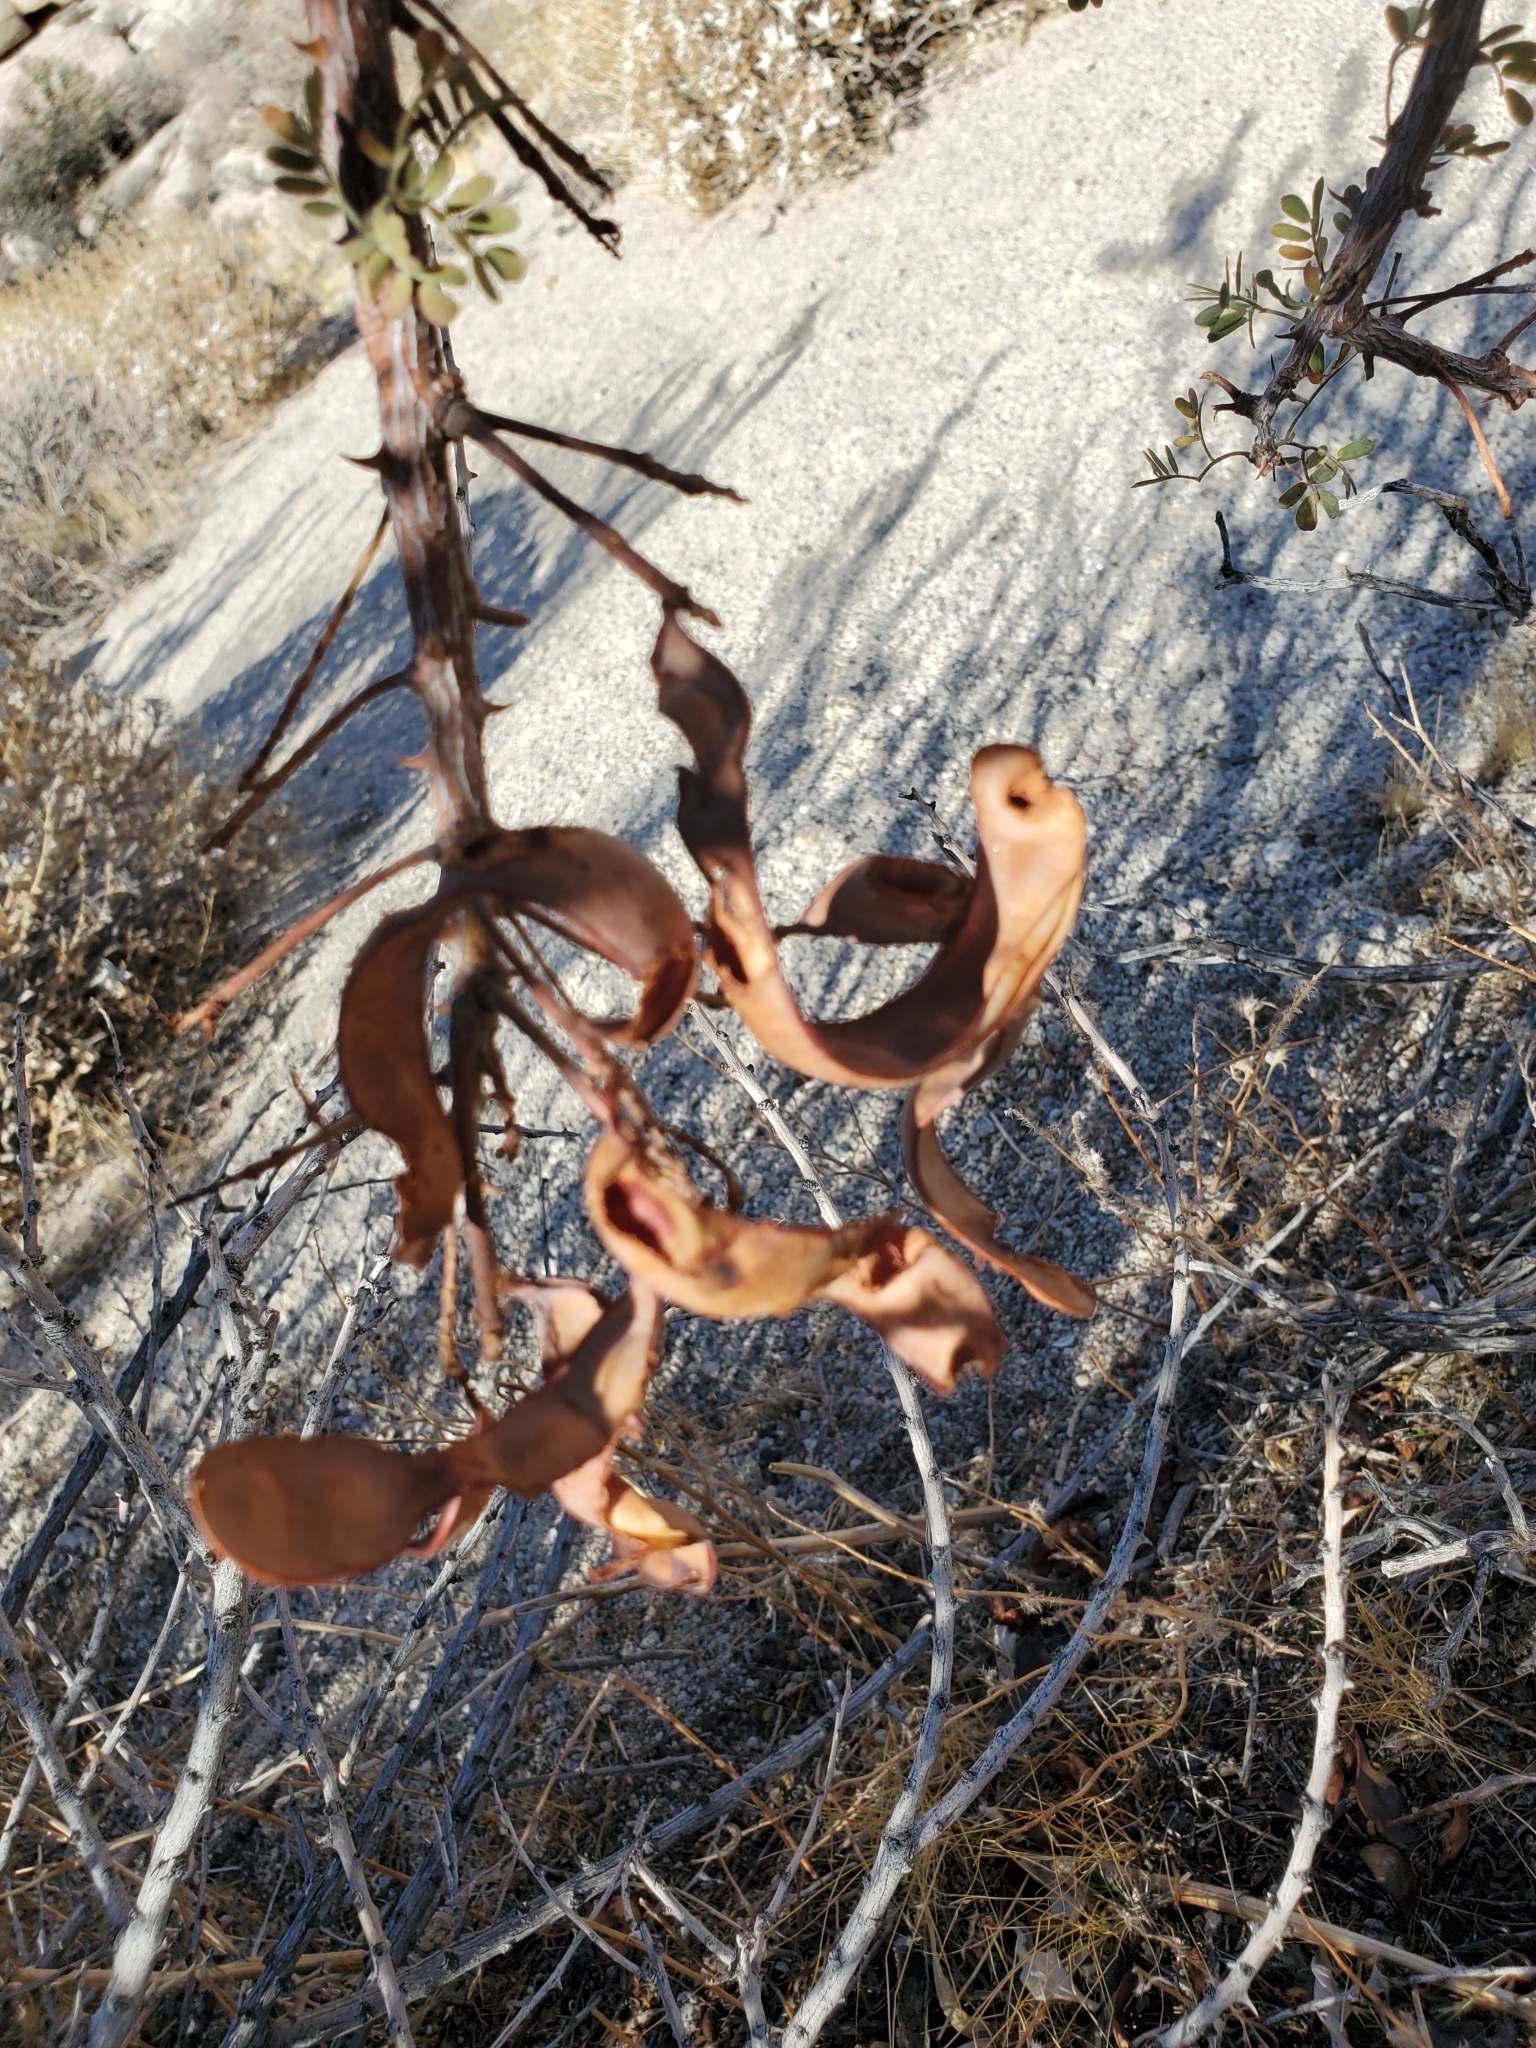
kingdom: Plantae
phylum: Tracheophyta
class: Magnoliopsida
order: Fabales
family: Fabaceae
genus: Senegalia
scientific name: Senegalia greggii
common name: Texas-mimosa
